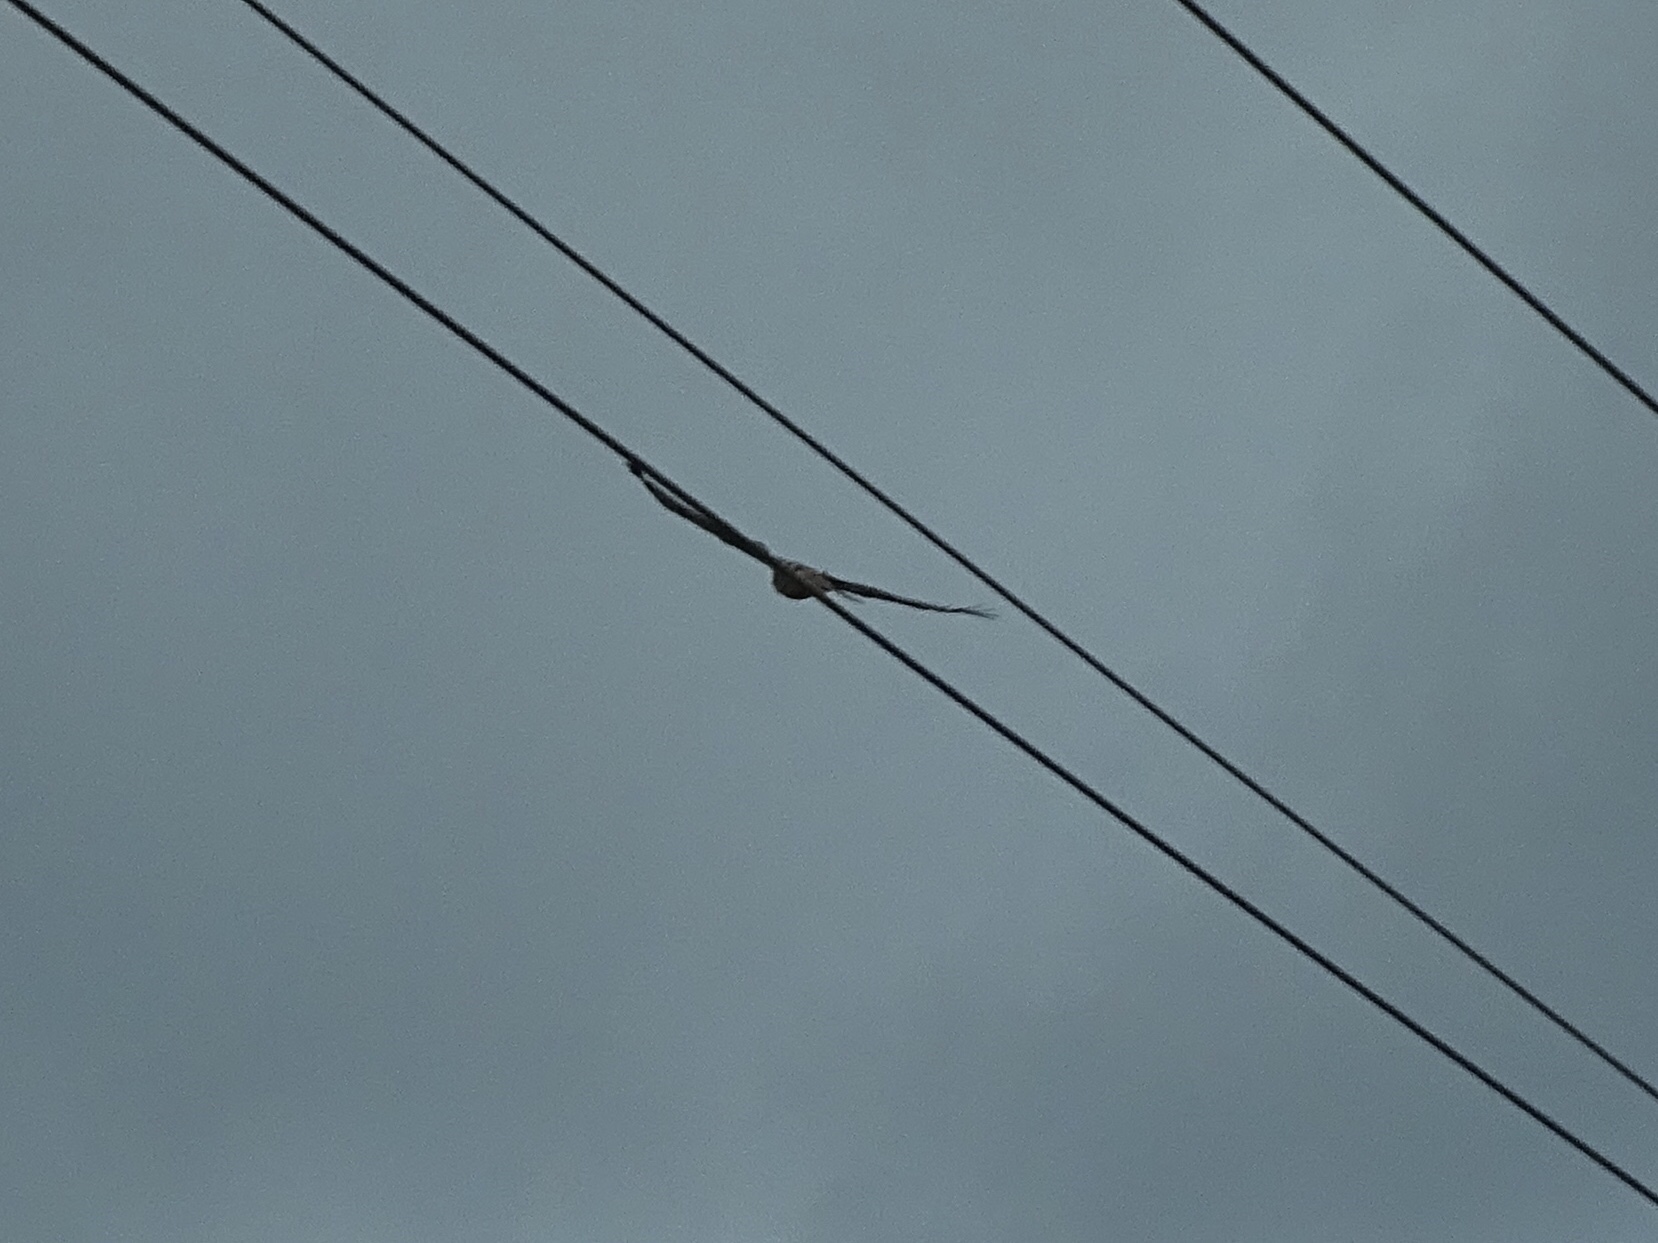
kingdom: Animalia
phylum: Chordata
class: Aves
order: Accipitriformes
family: Accipitridae
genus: Buteo
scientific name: Buteo jamaicensis
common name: Red-tailed hawk
